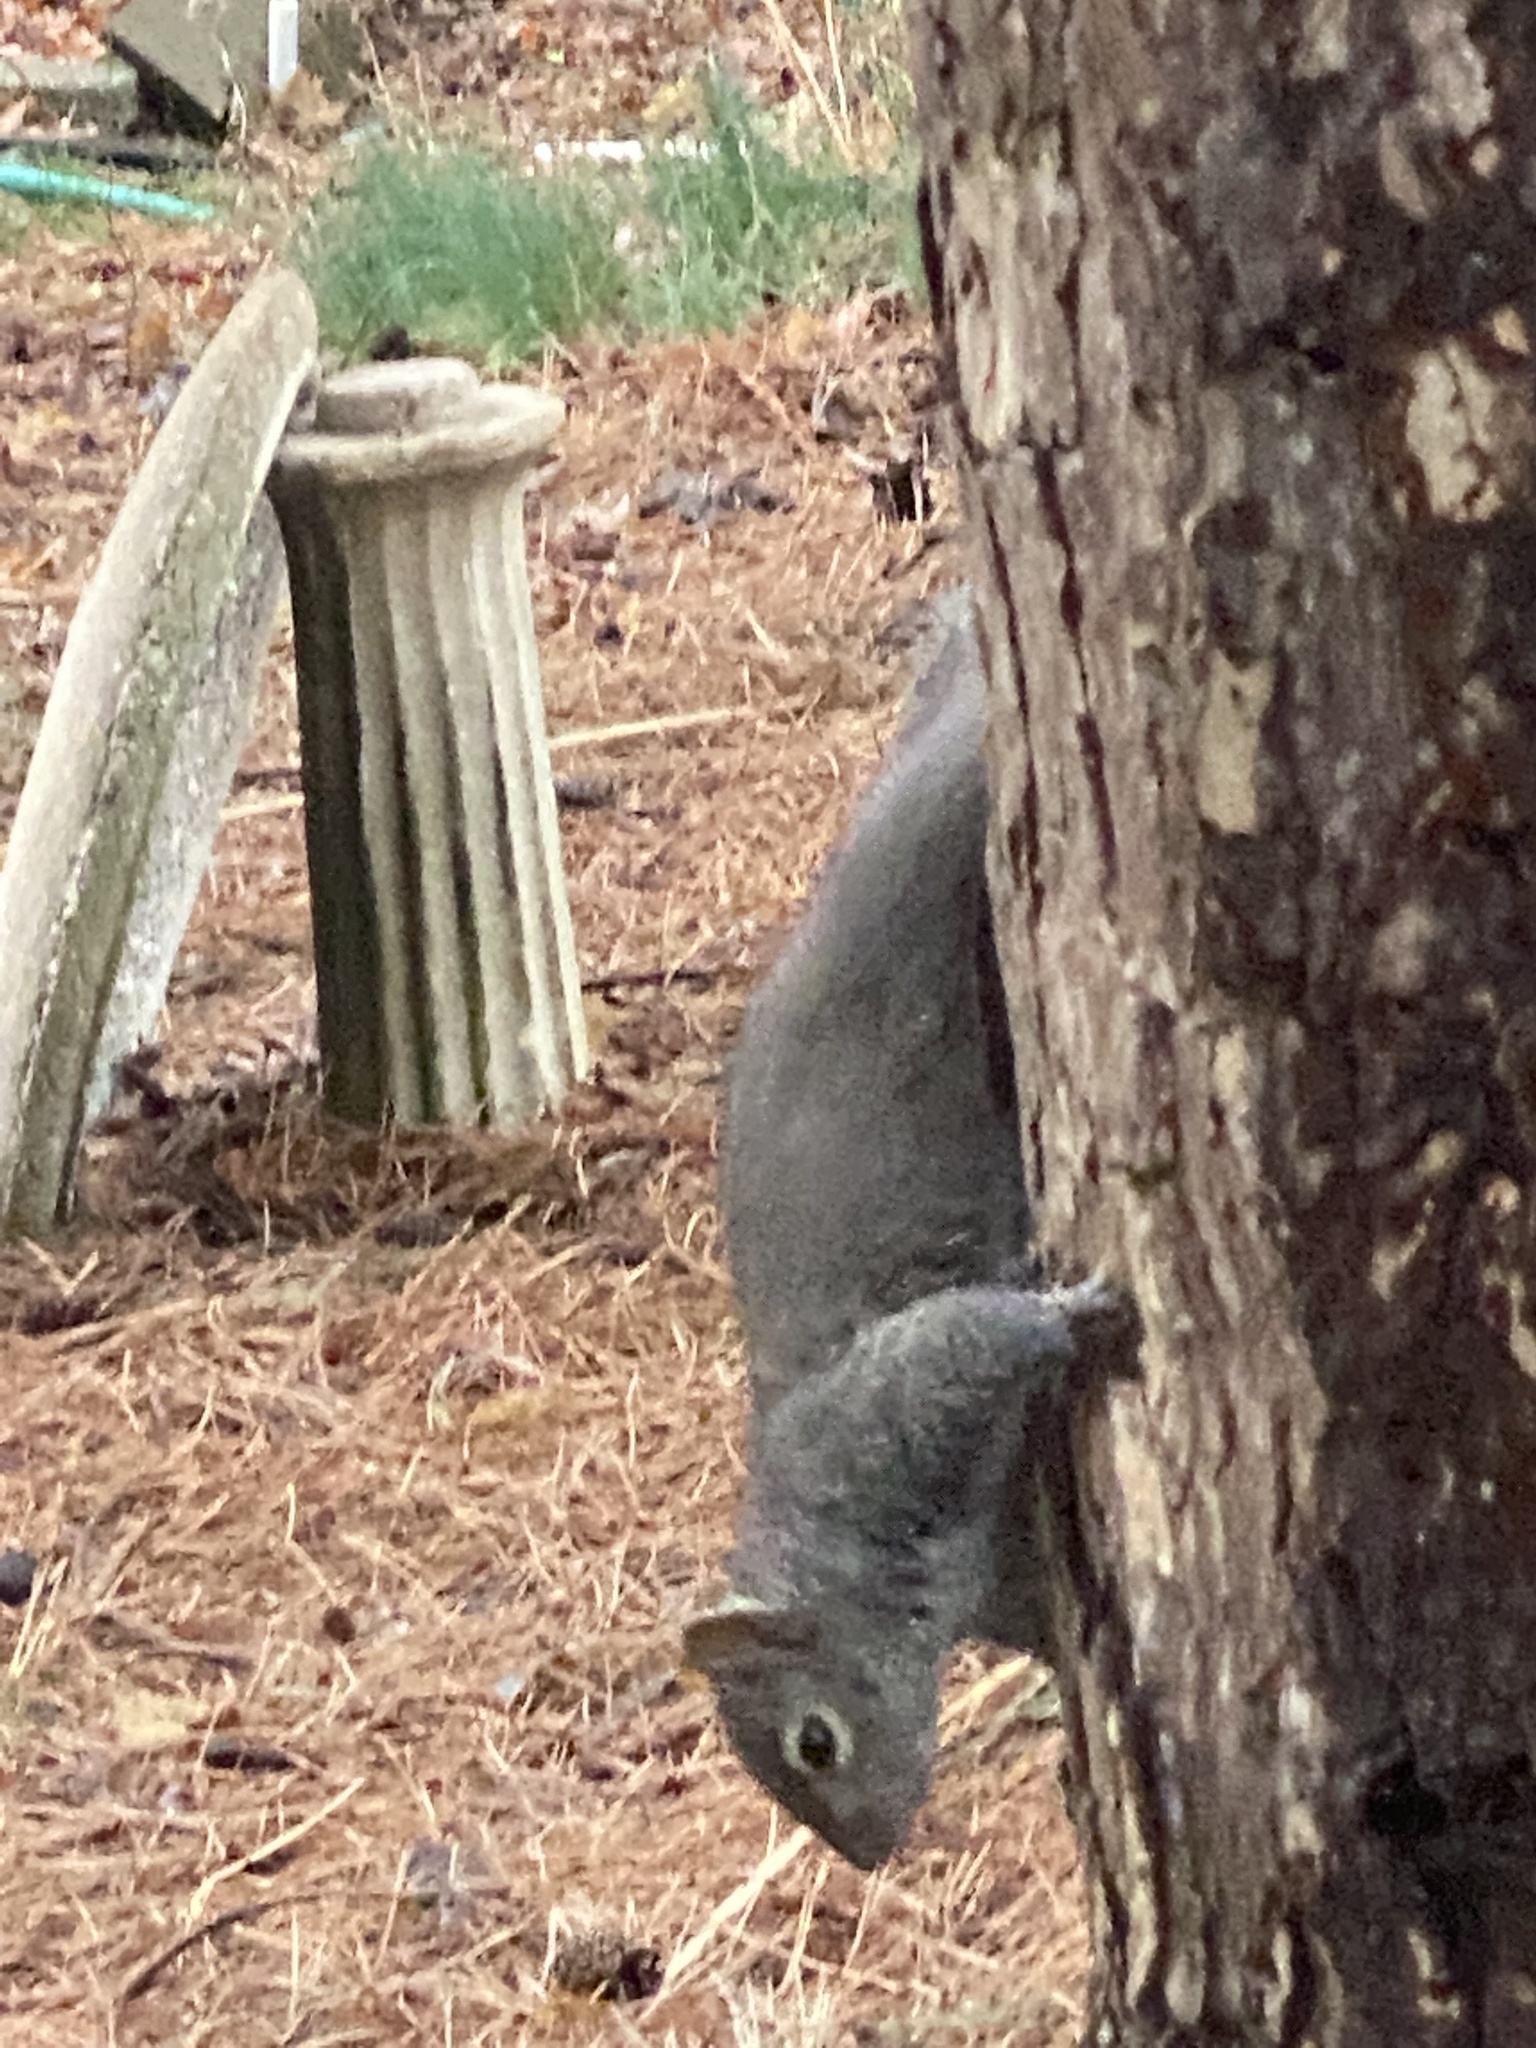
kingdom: Animalia
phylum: Chordata
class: Mammalia
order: Rodentia
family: Sciuridae
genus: Sciurus
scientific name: Sciurus carolinensis
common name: Eastern gray squirrel
